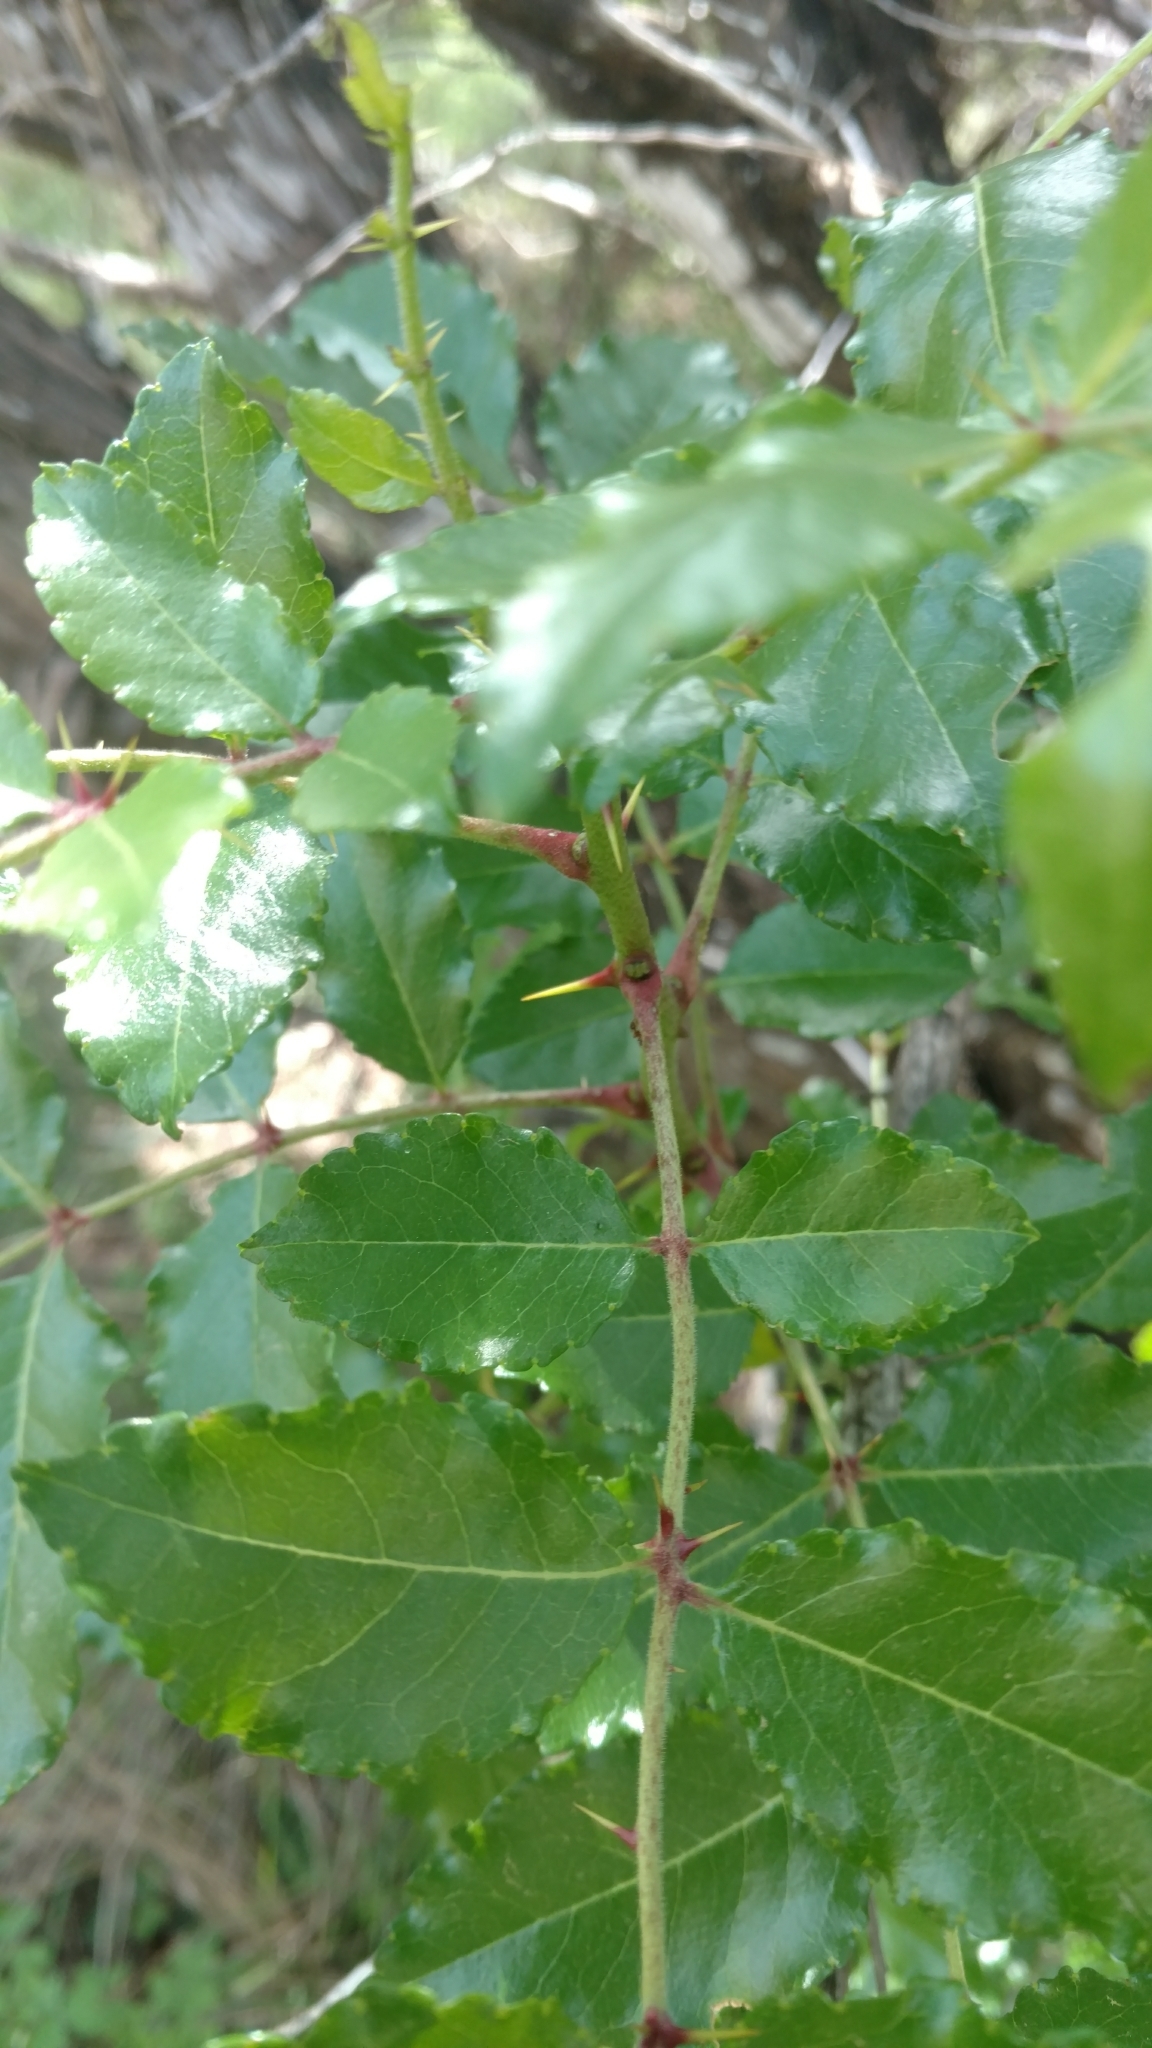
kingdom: Plantae
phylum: Tracheophyta
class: Magnoliopsida
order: Sapindales
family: Rutaceae
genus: Zanthoxylum
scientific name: Zanthoxylum clava-herculis
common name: Hercules'-club
